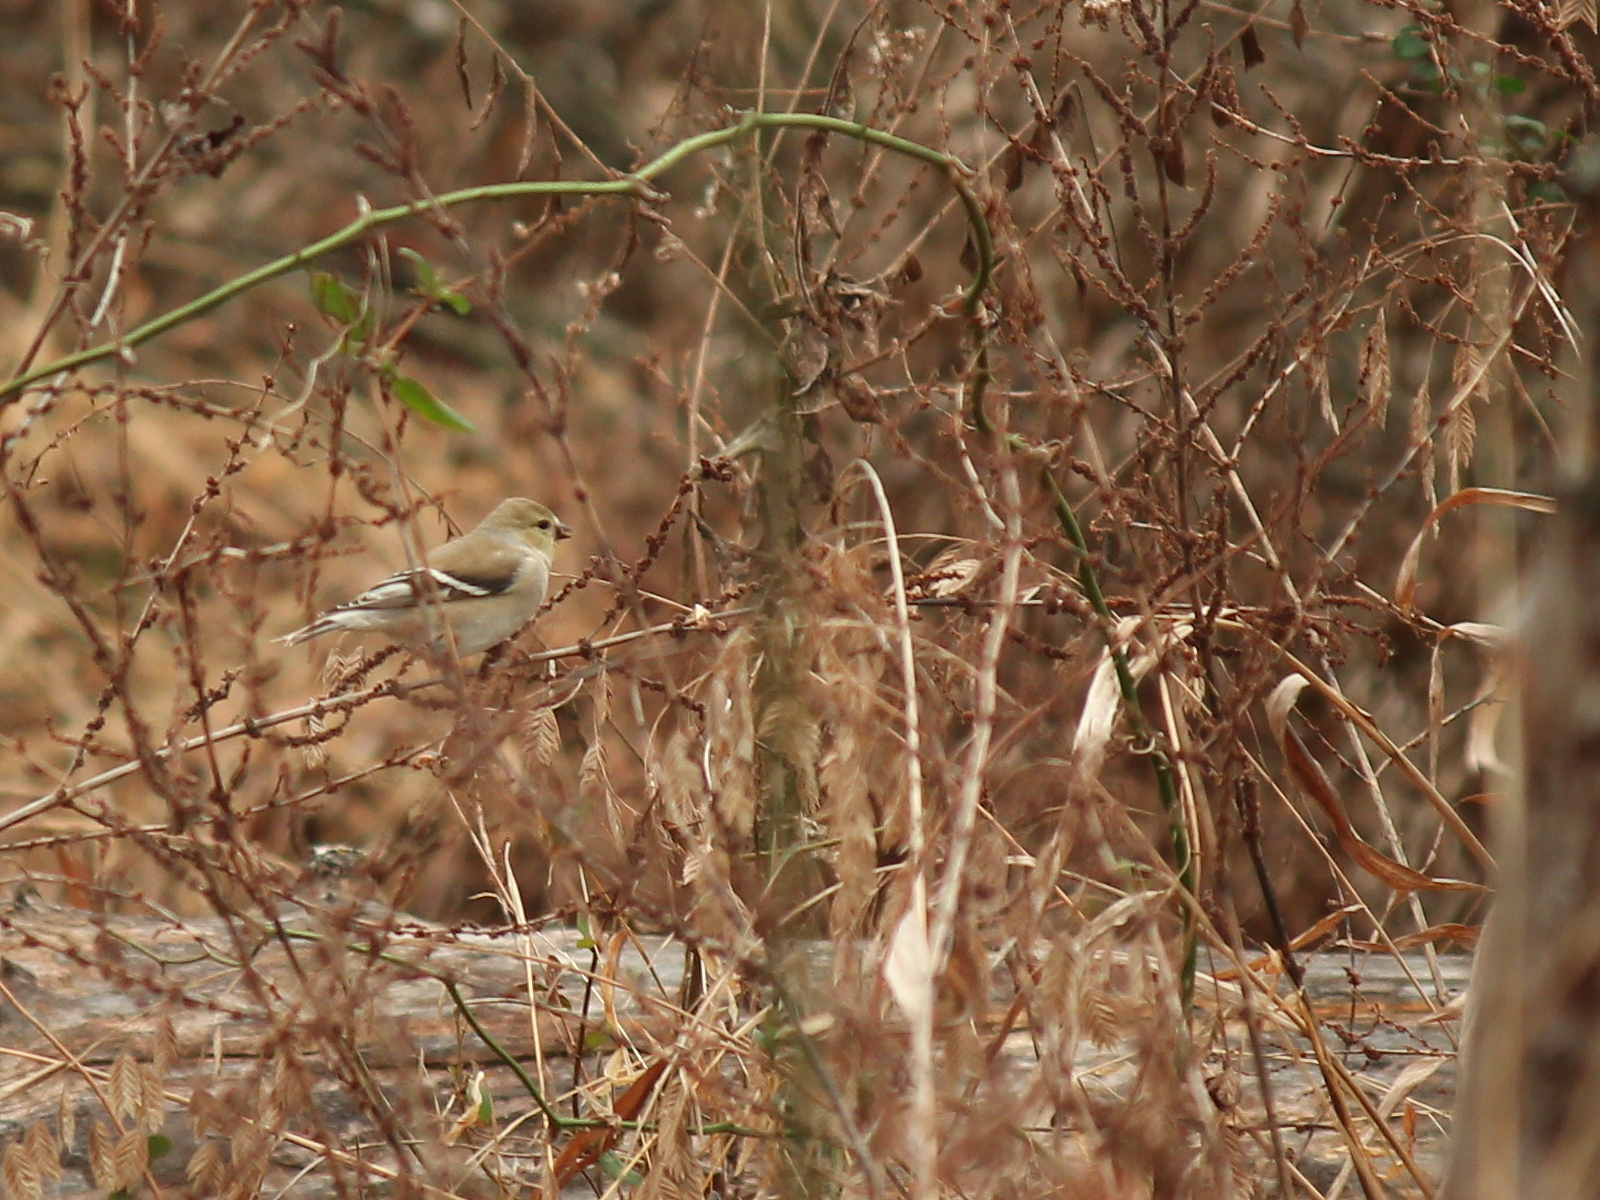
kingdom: Animalia
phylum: Chordata
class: Aves
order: Passeriformes
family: Fringillidae
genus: Spinus
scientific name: Spinus tristis
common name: American goldfinch
